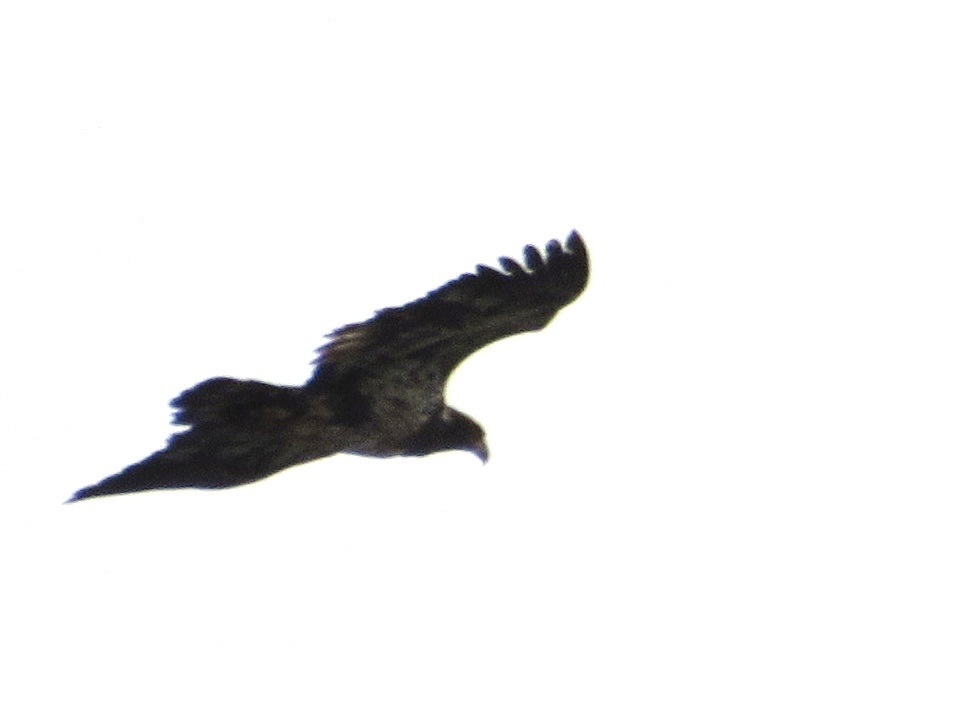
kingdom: Animalia
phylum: Chordata
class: Aves
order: Accipitriformes
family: Accipitridae
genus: Haliaeetus
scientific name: Haliaeetus leucocephalus
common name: Bald eagle
